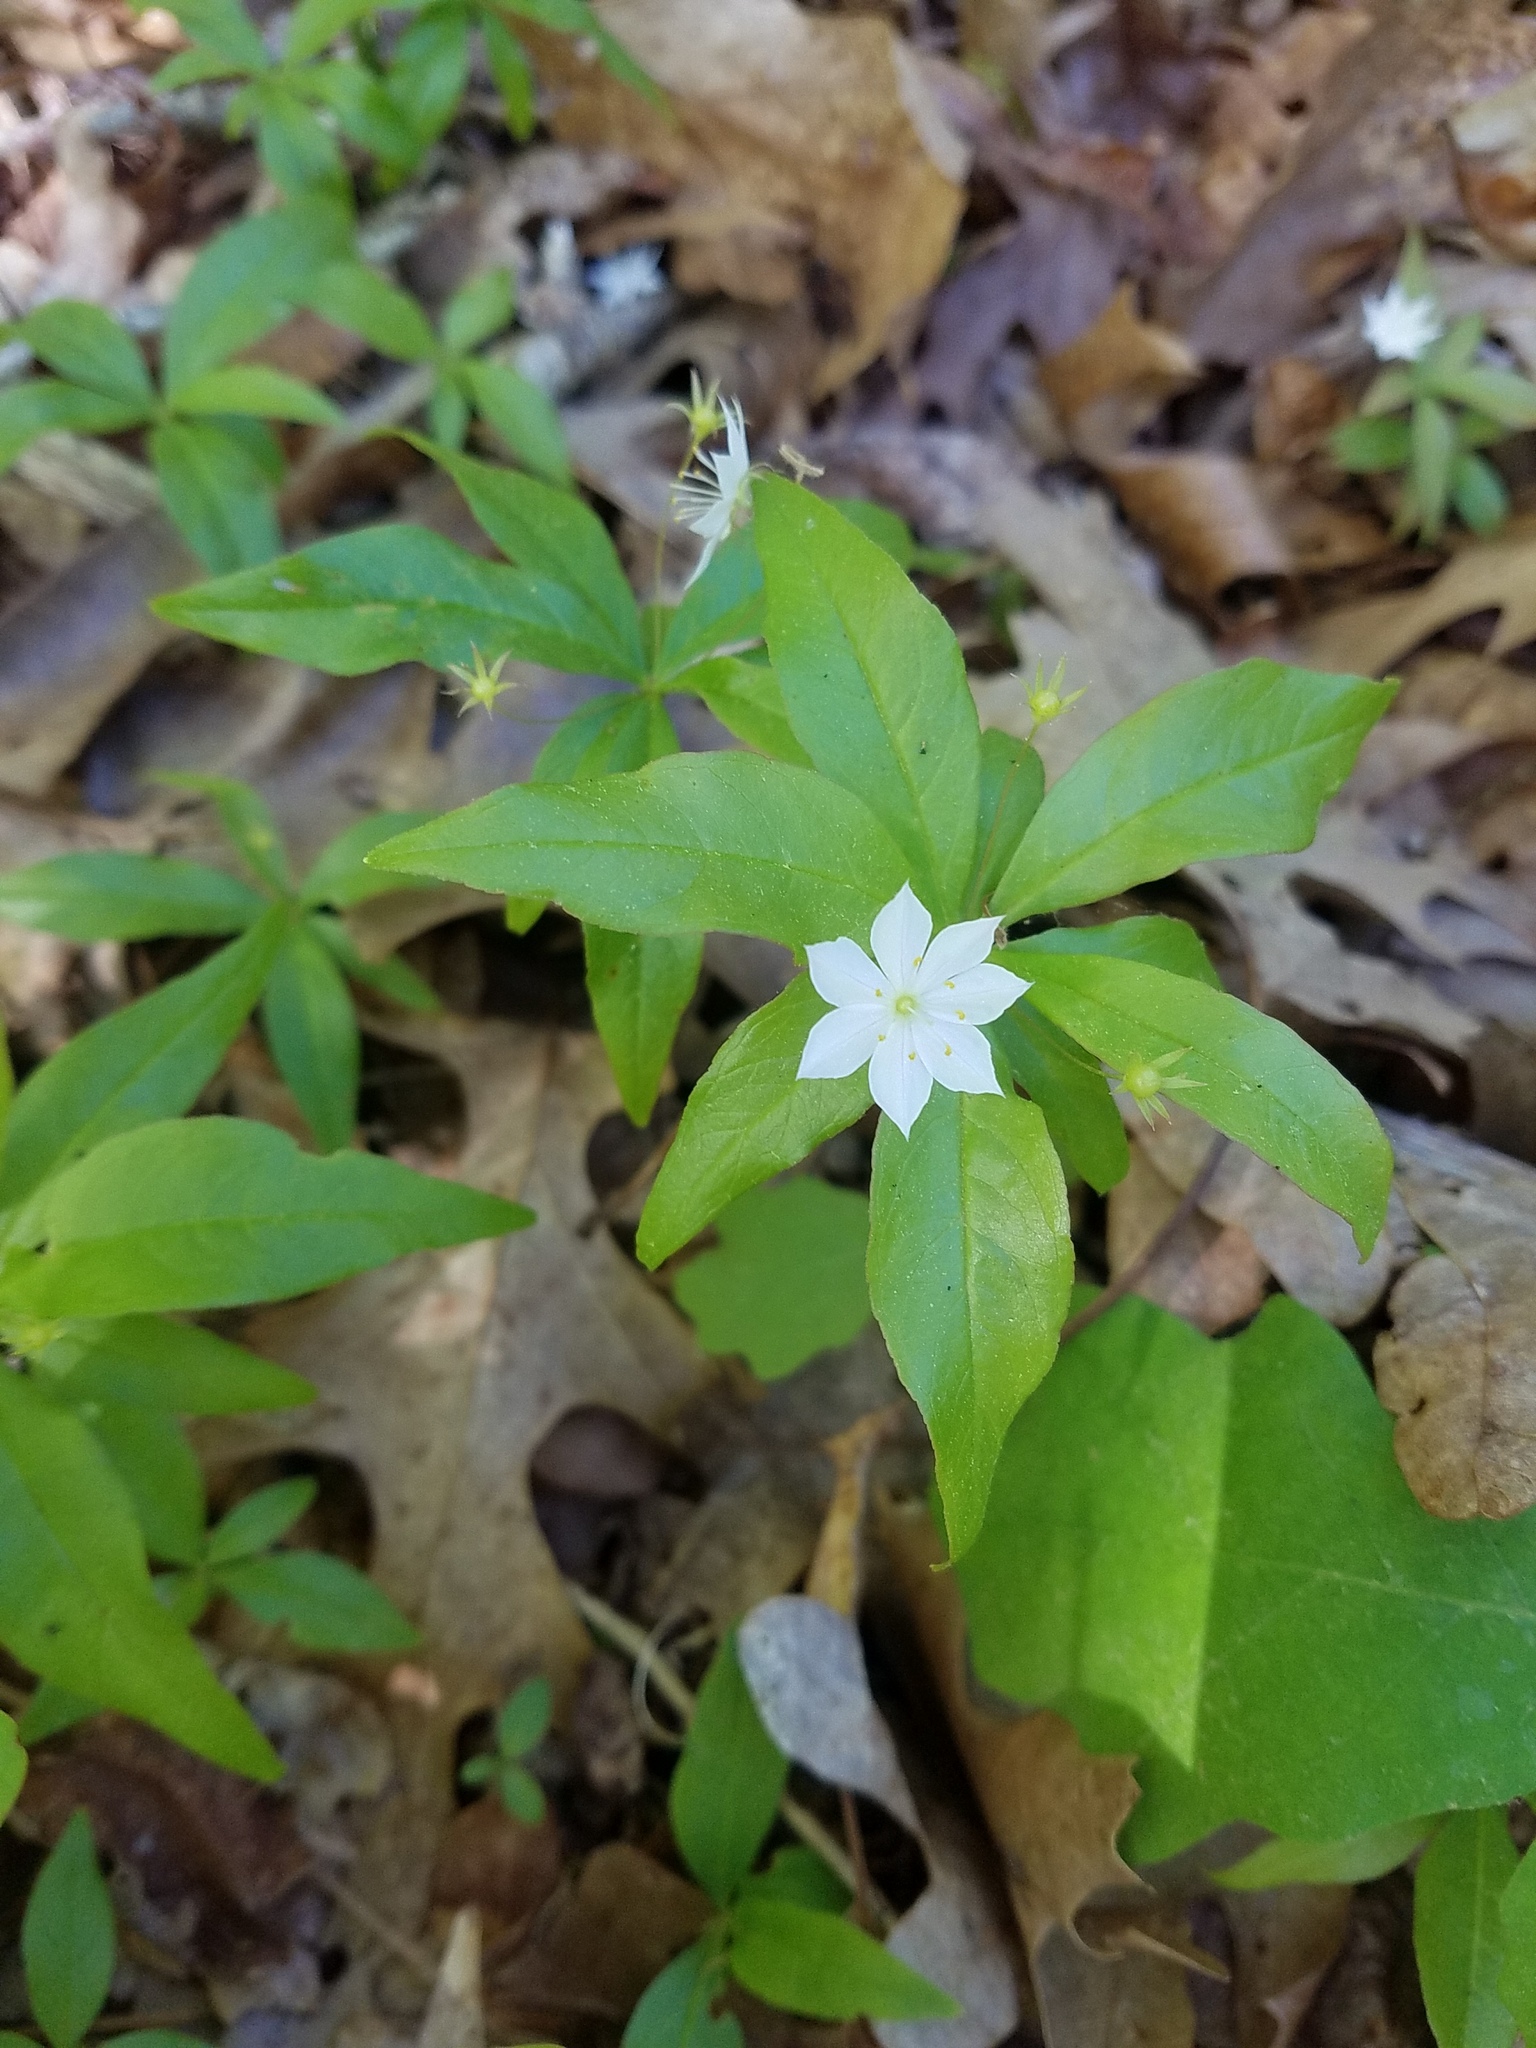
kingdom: Plantae
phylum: Tracheophyta
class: Magnoliopsida
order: Ericales
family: Primulaceae
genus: Lysimachia
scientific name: Lysimachia borealis
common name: American starflower
